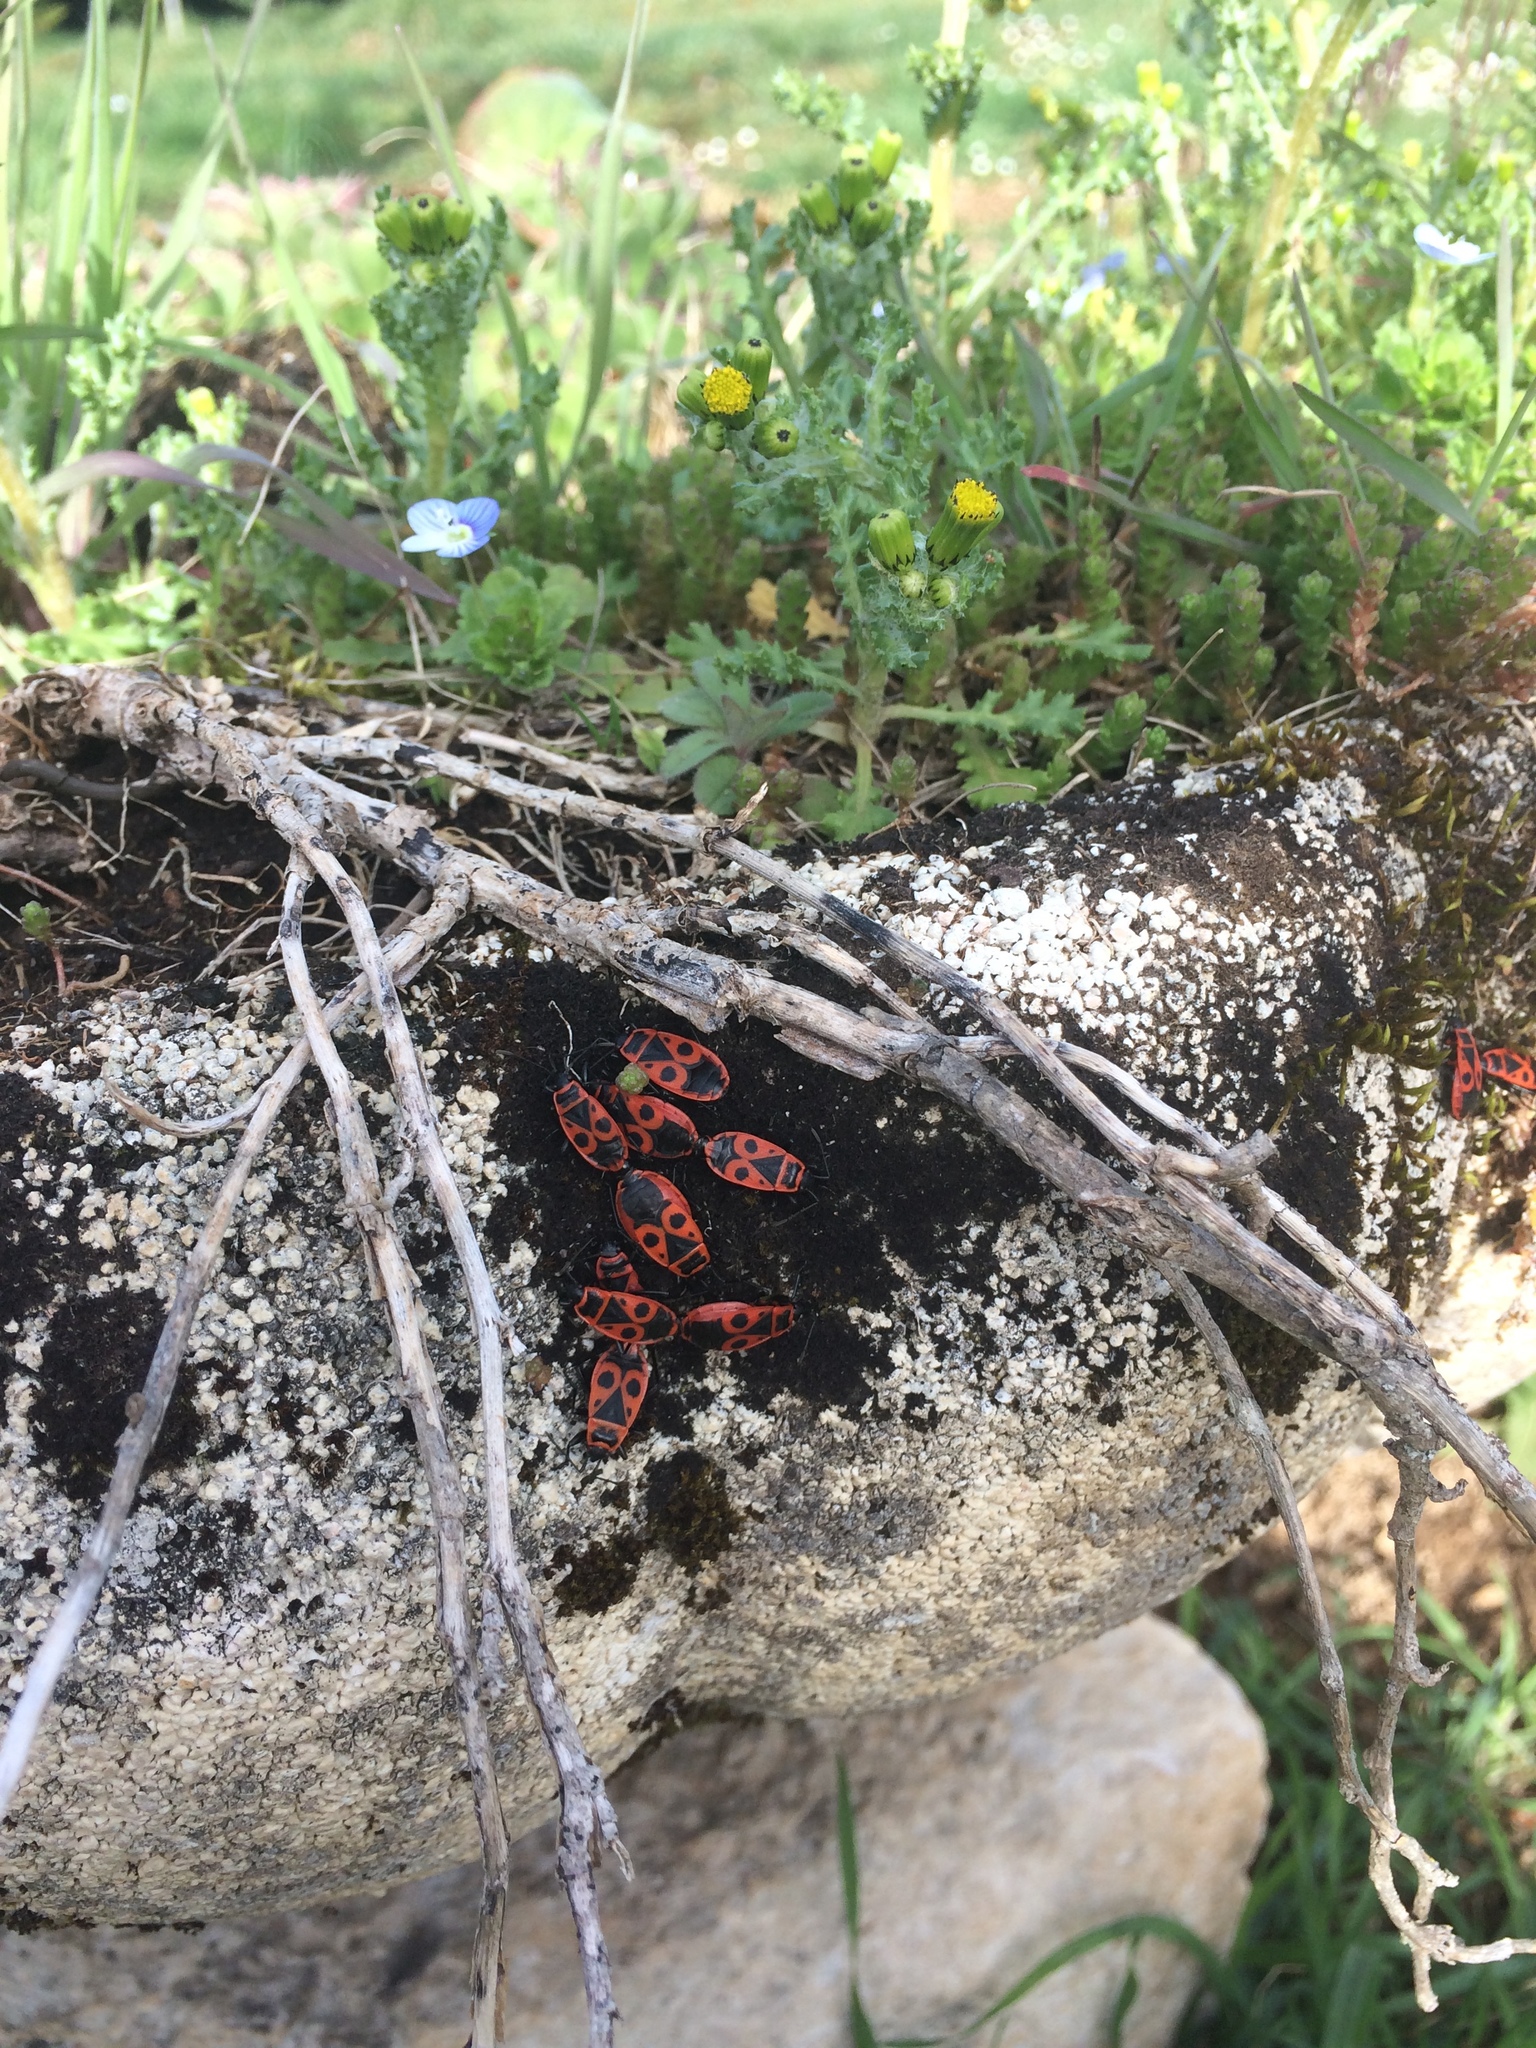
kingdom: Animalia
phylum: Arthropoda
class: Insecta
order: Hemiptera
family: Pyrrhocoridae
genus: Pyrrhocoris
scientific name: Pyrrhocoris apterus
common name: Firebug
